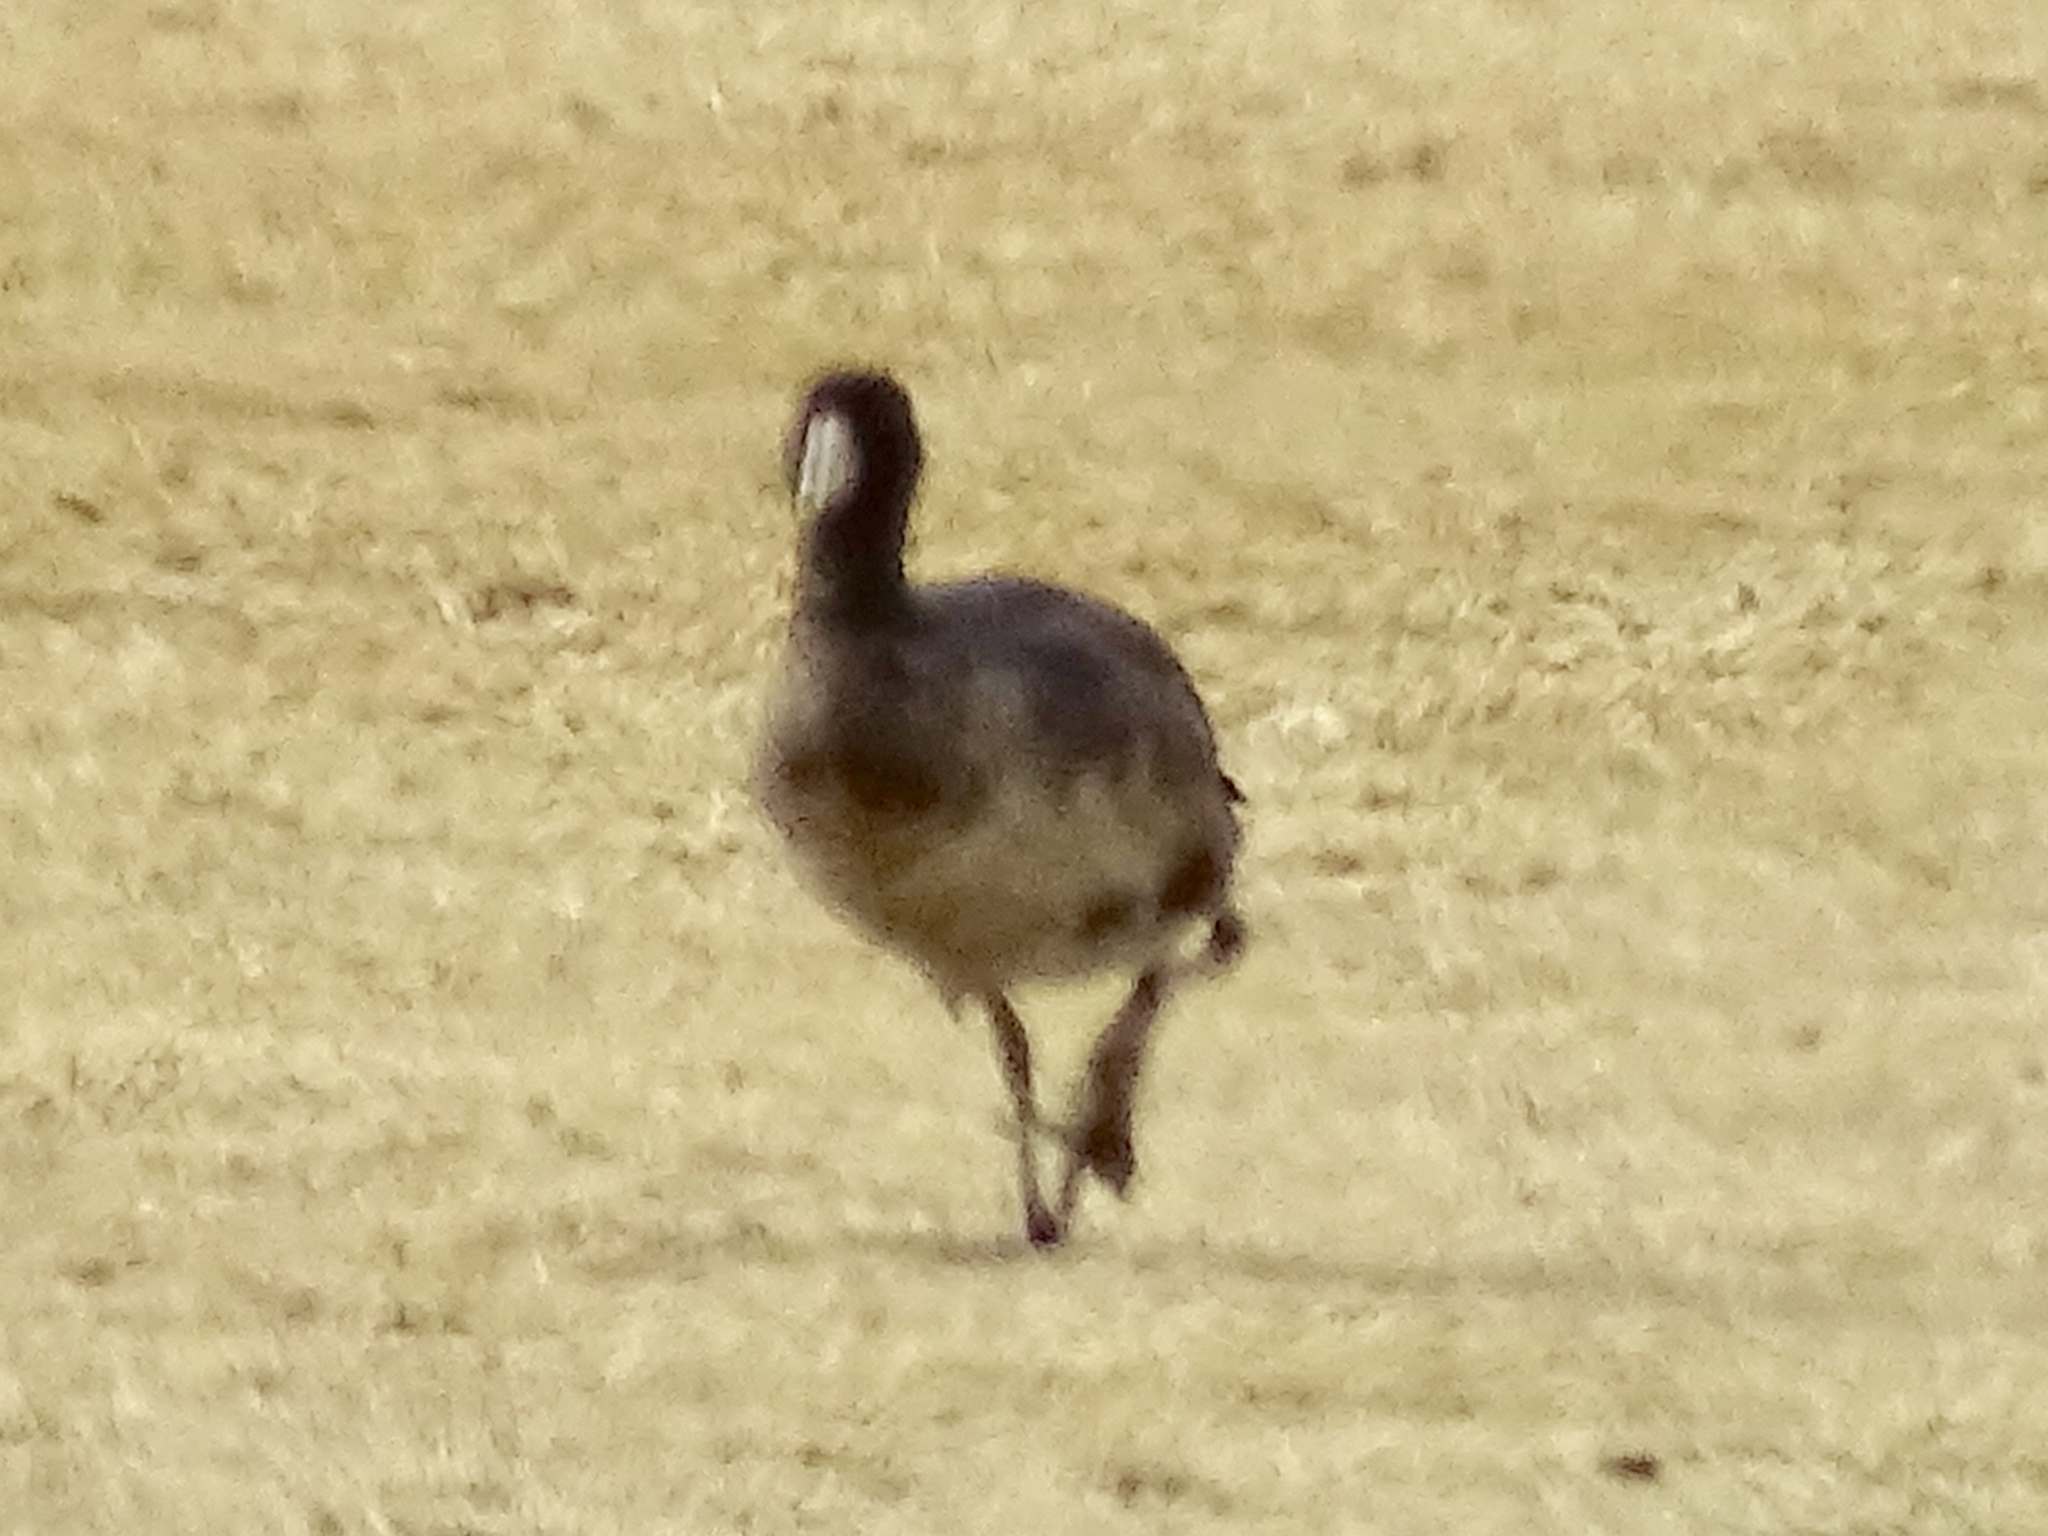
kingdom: Animalia
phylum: Chordata
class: Aves
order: Gruiformes
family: Rallidae
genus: Fulica
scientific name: Fulica americana
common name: American coot
